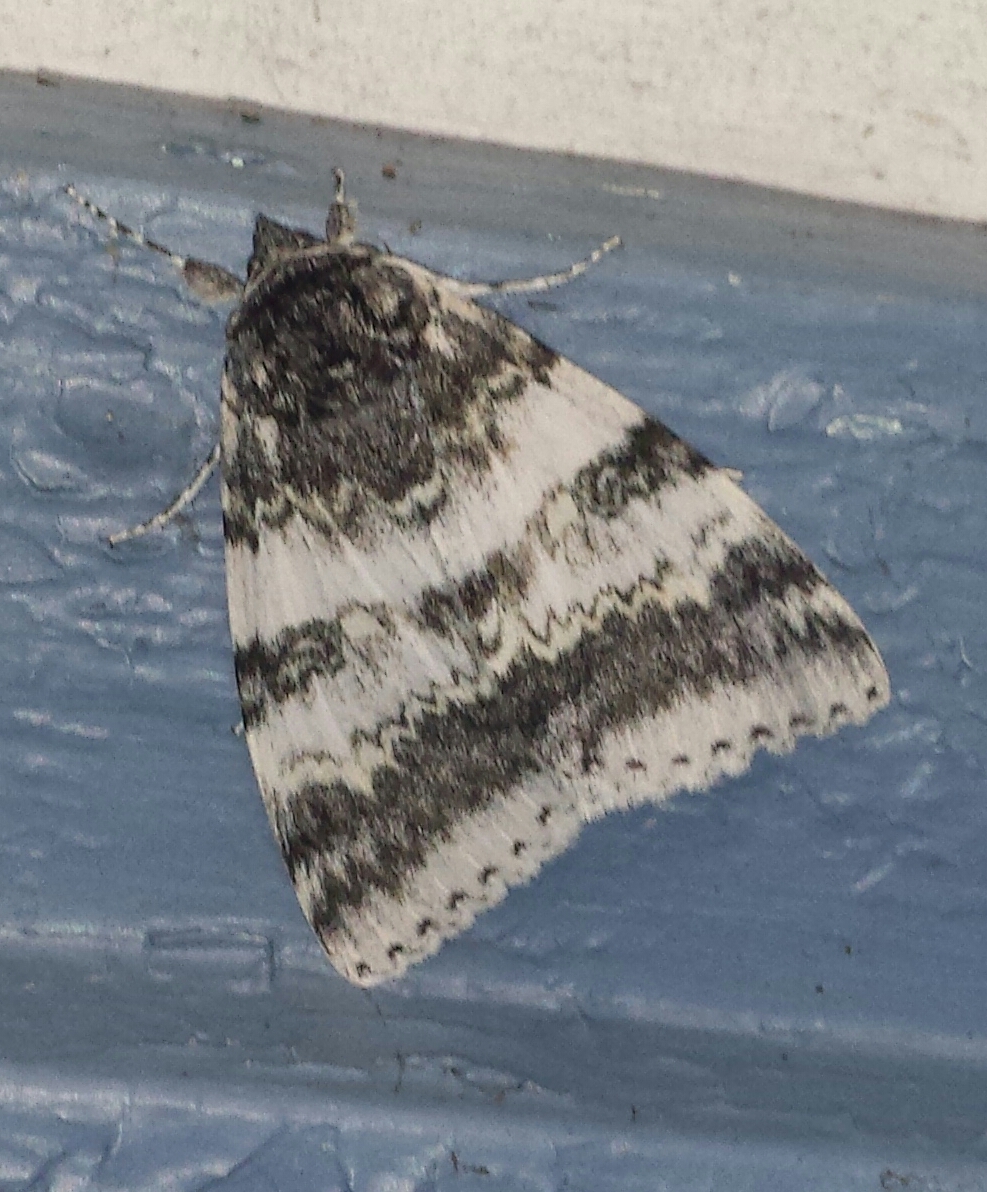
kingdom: Animalia
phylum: Arthropoda
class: Insecta
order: Lepidoptera
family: Erebidae
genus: Catocala
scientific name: Catocala relicta
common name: White underwing
